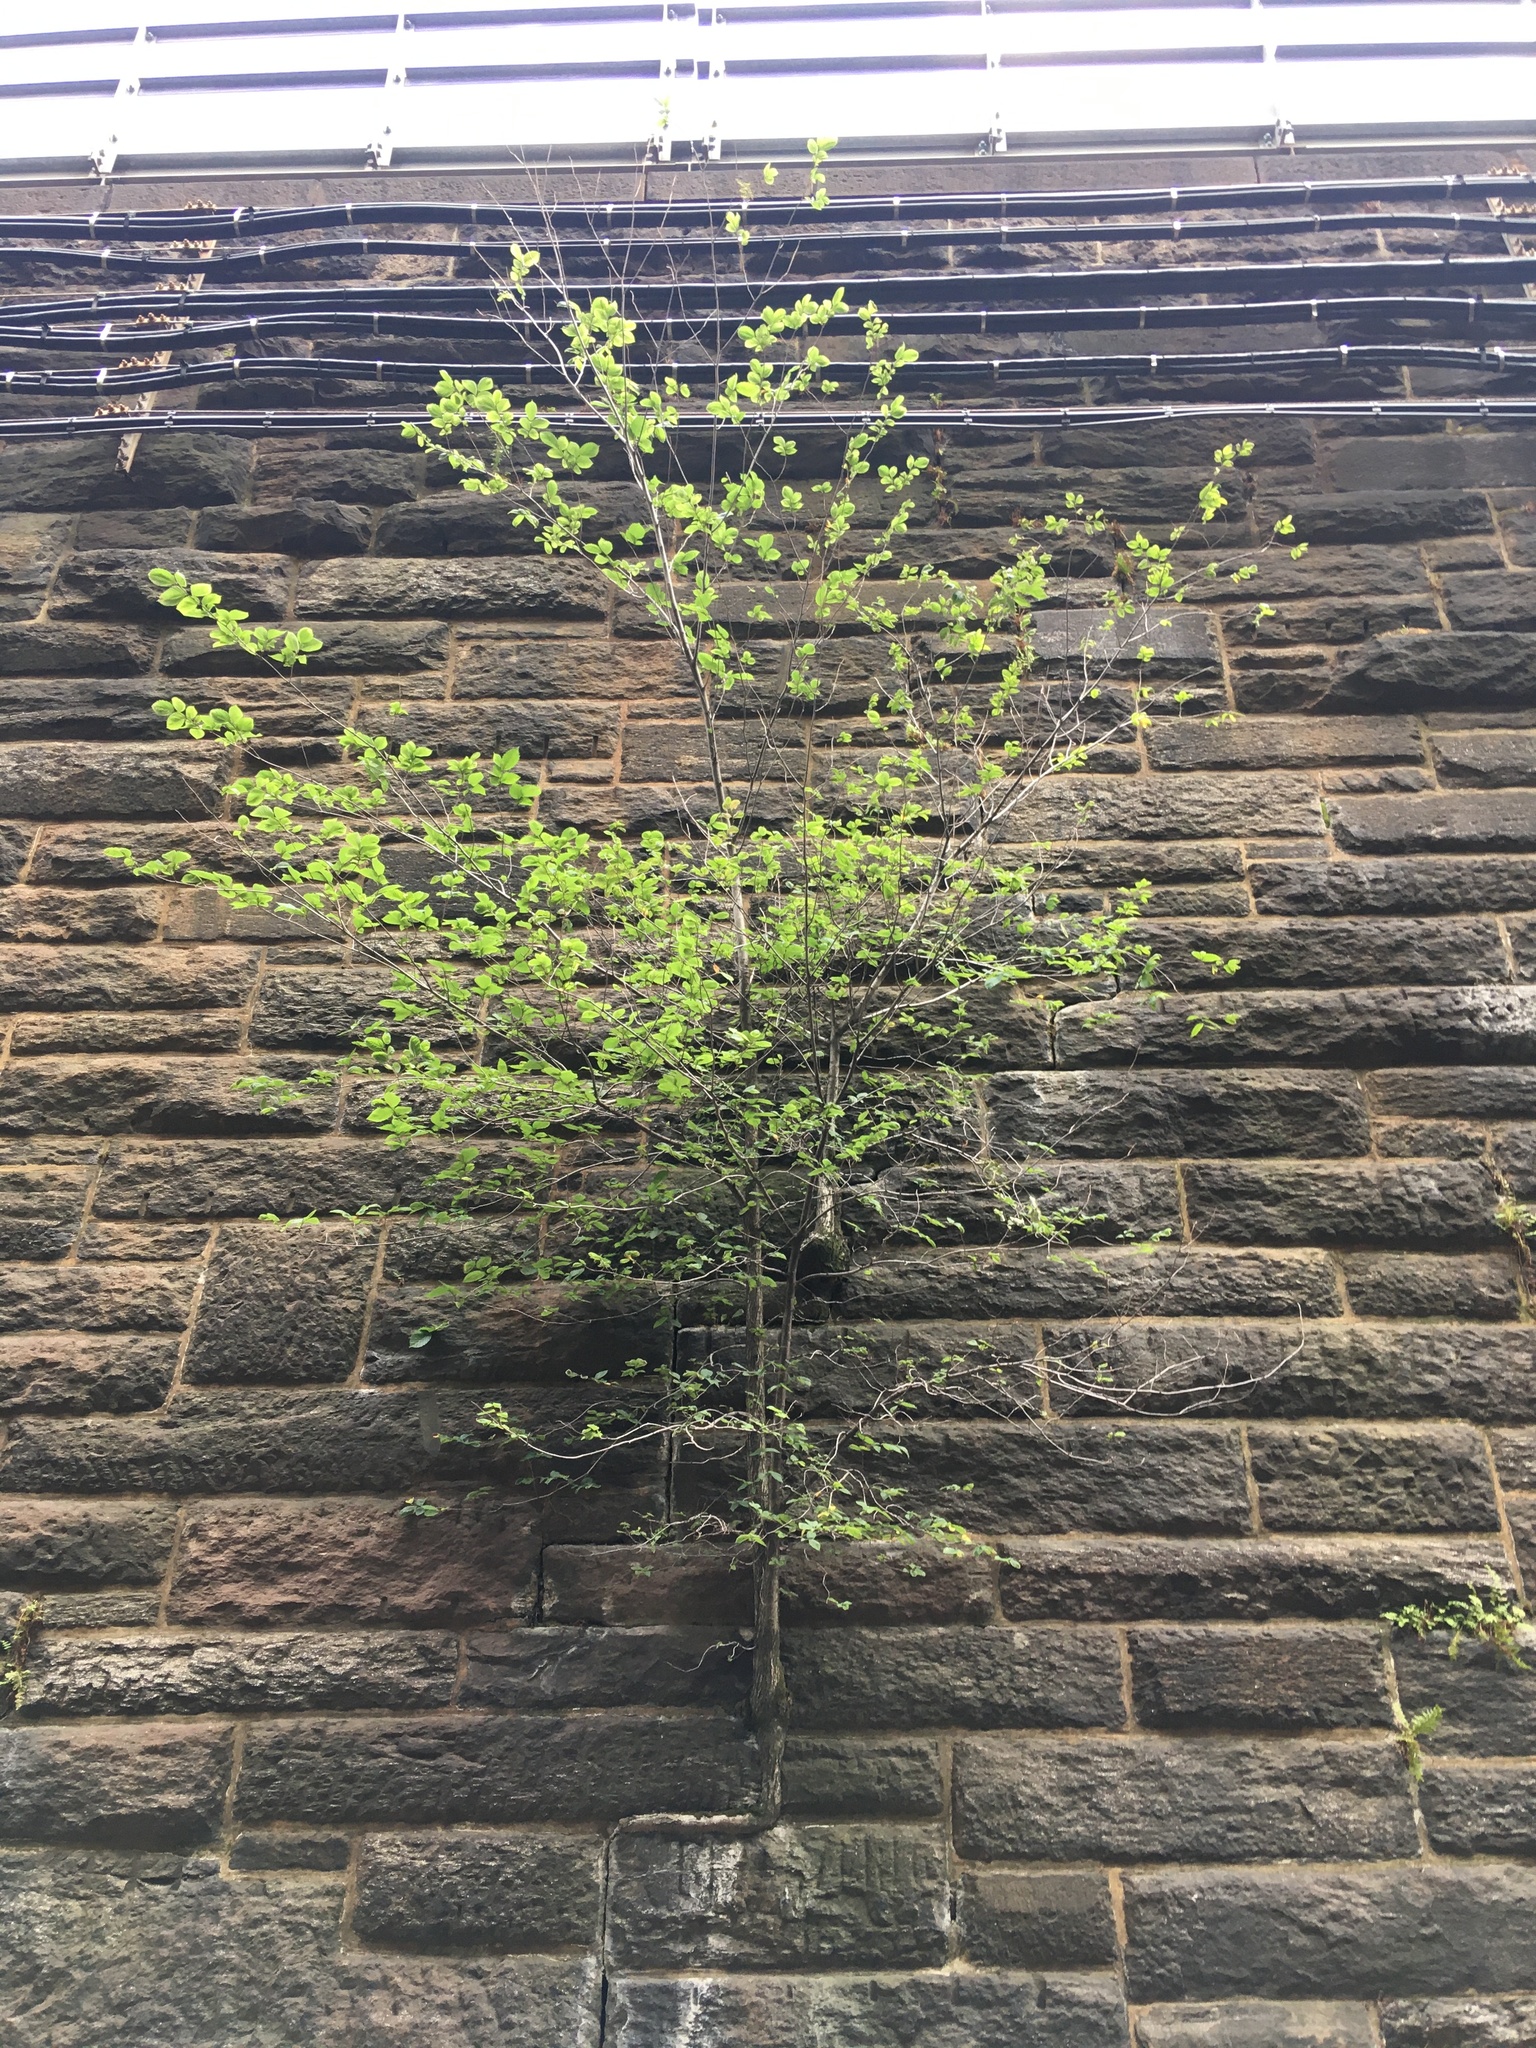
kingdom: Plantae
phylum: Tracheophyta
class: Magnoliopsida
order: Rosales
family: Ulmaceae
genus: Ulmus
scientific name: Ulmus americana
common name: American elm
